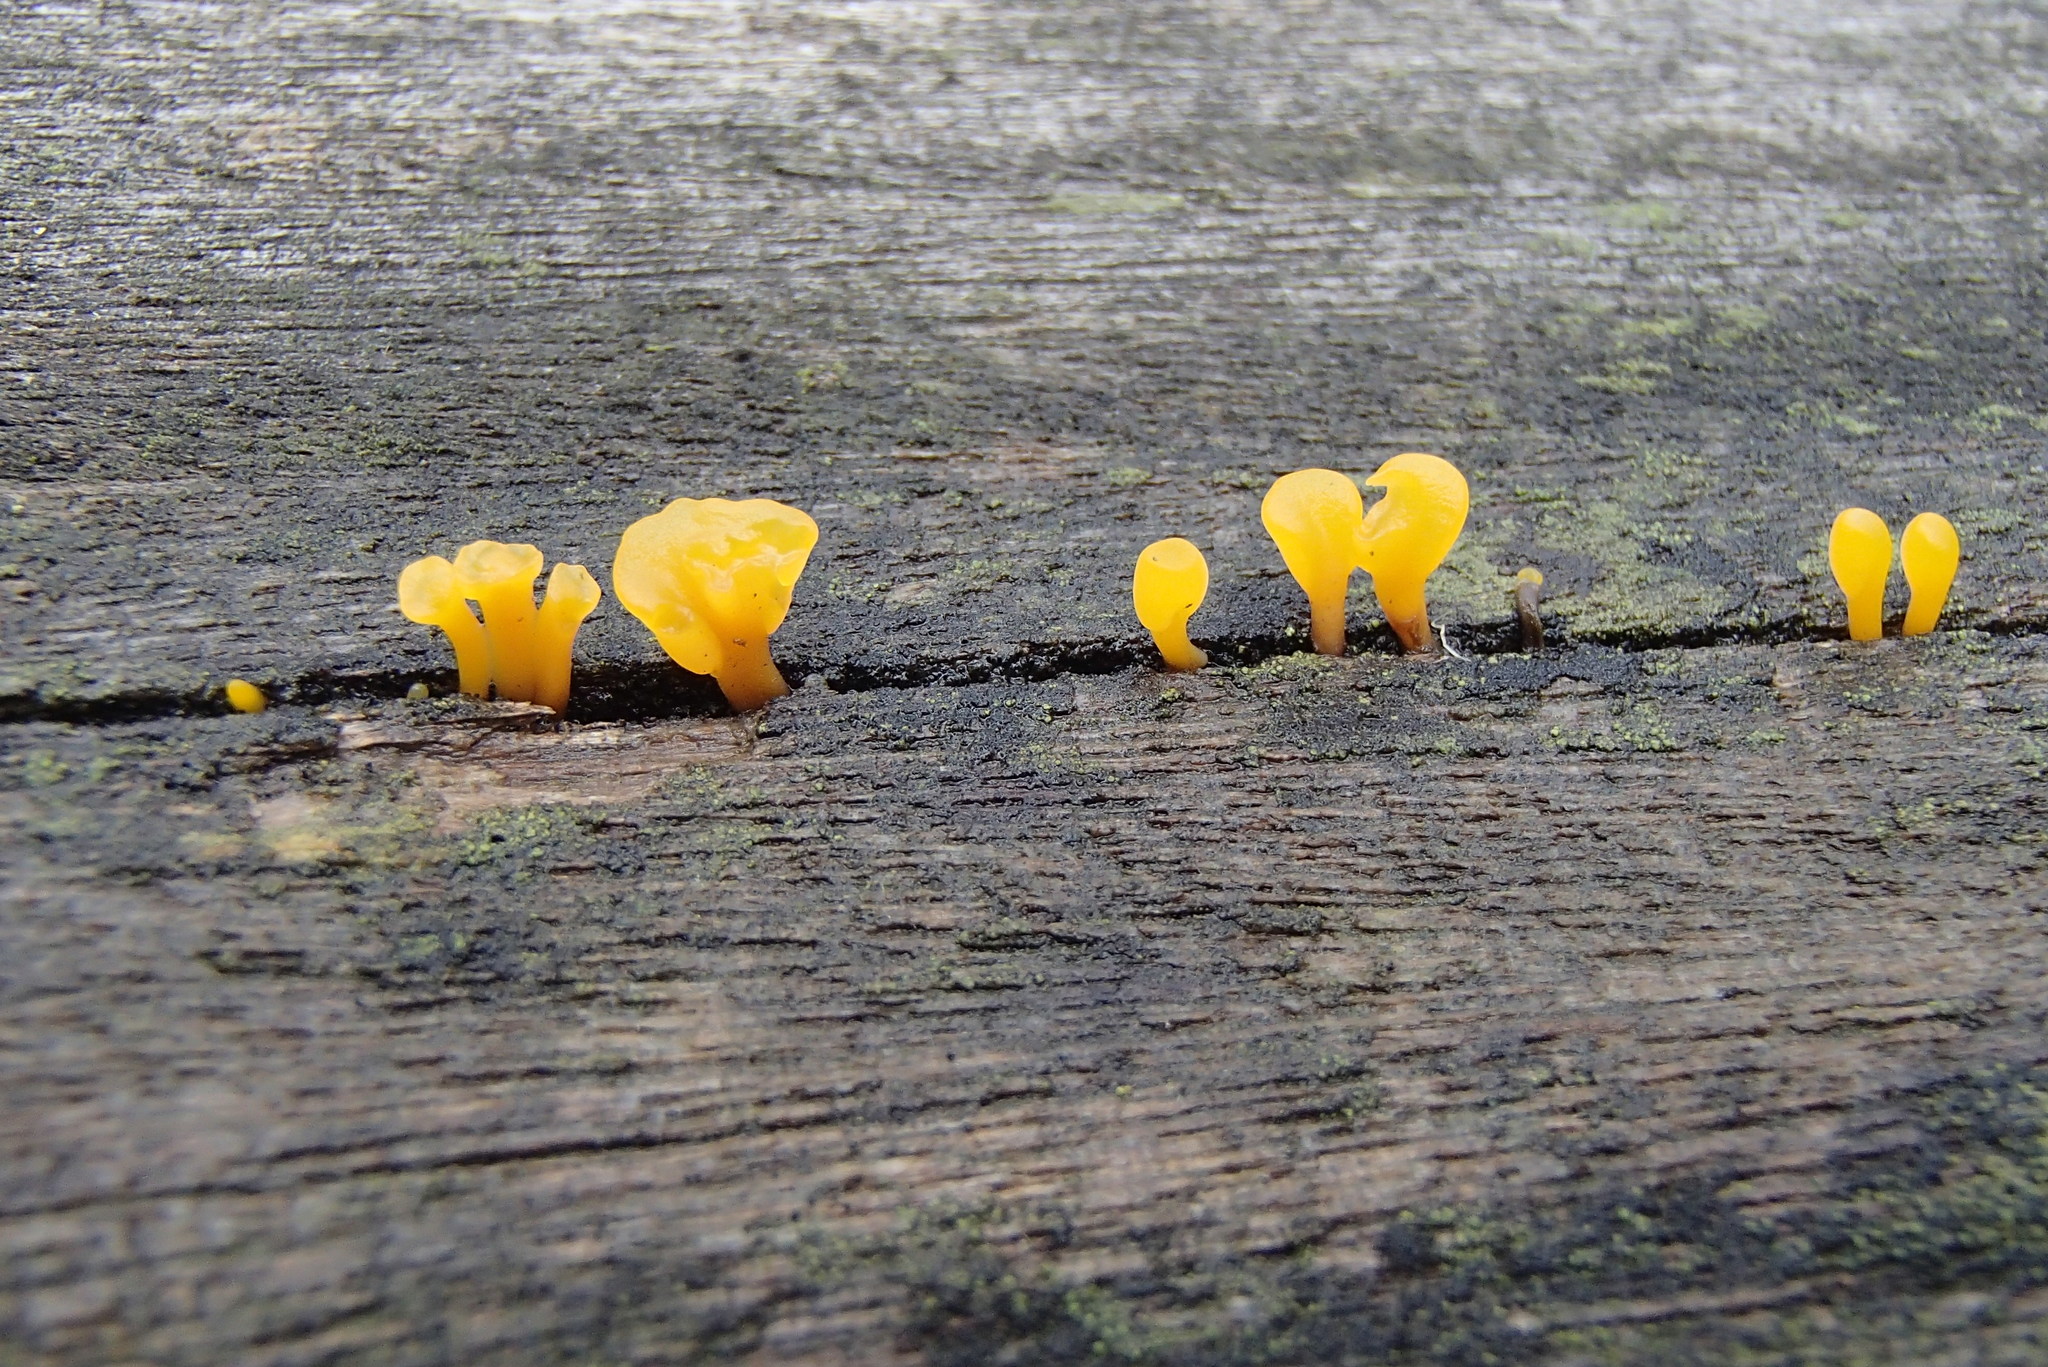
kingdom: Fungi
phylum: Basidiomycota
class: Dacrymycetes
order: Dacrymycetales
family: Dacrymycetaceae
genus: Dacrymyces
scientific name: Dacrymyces spathularius
